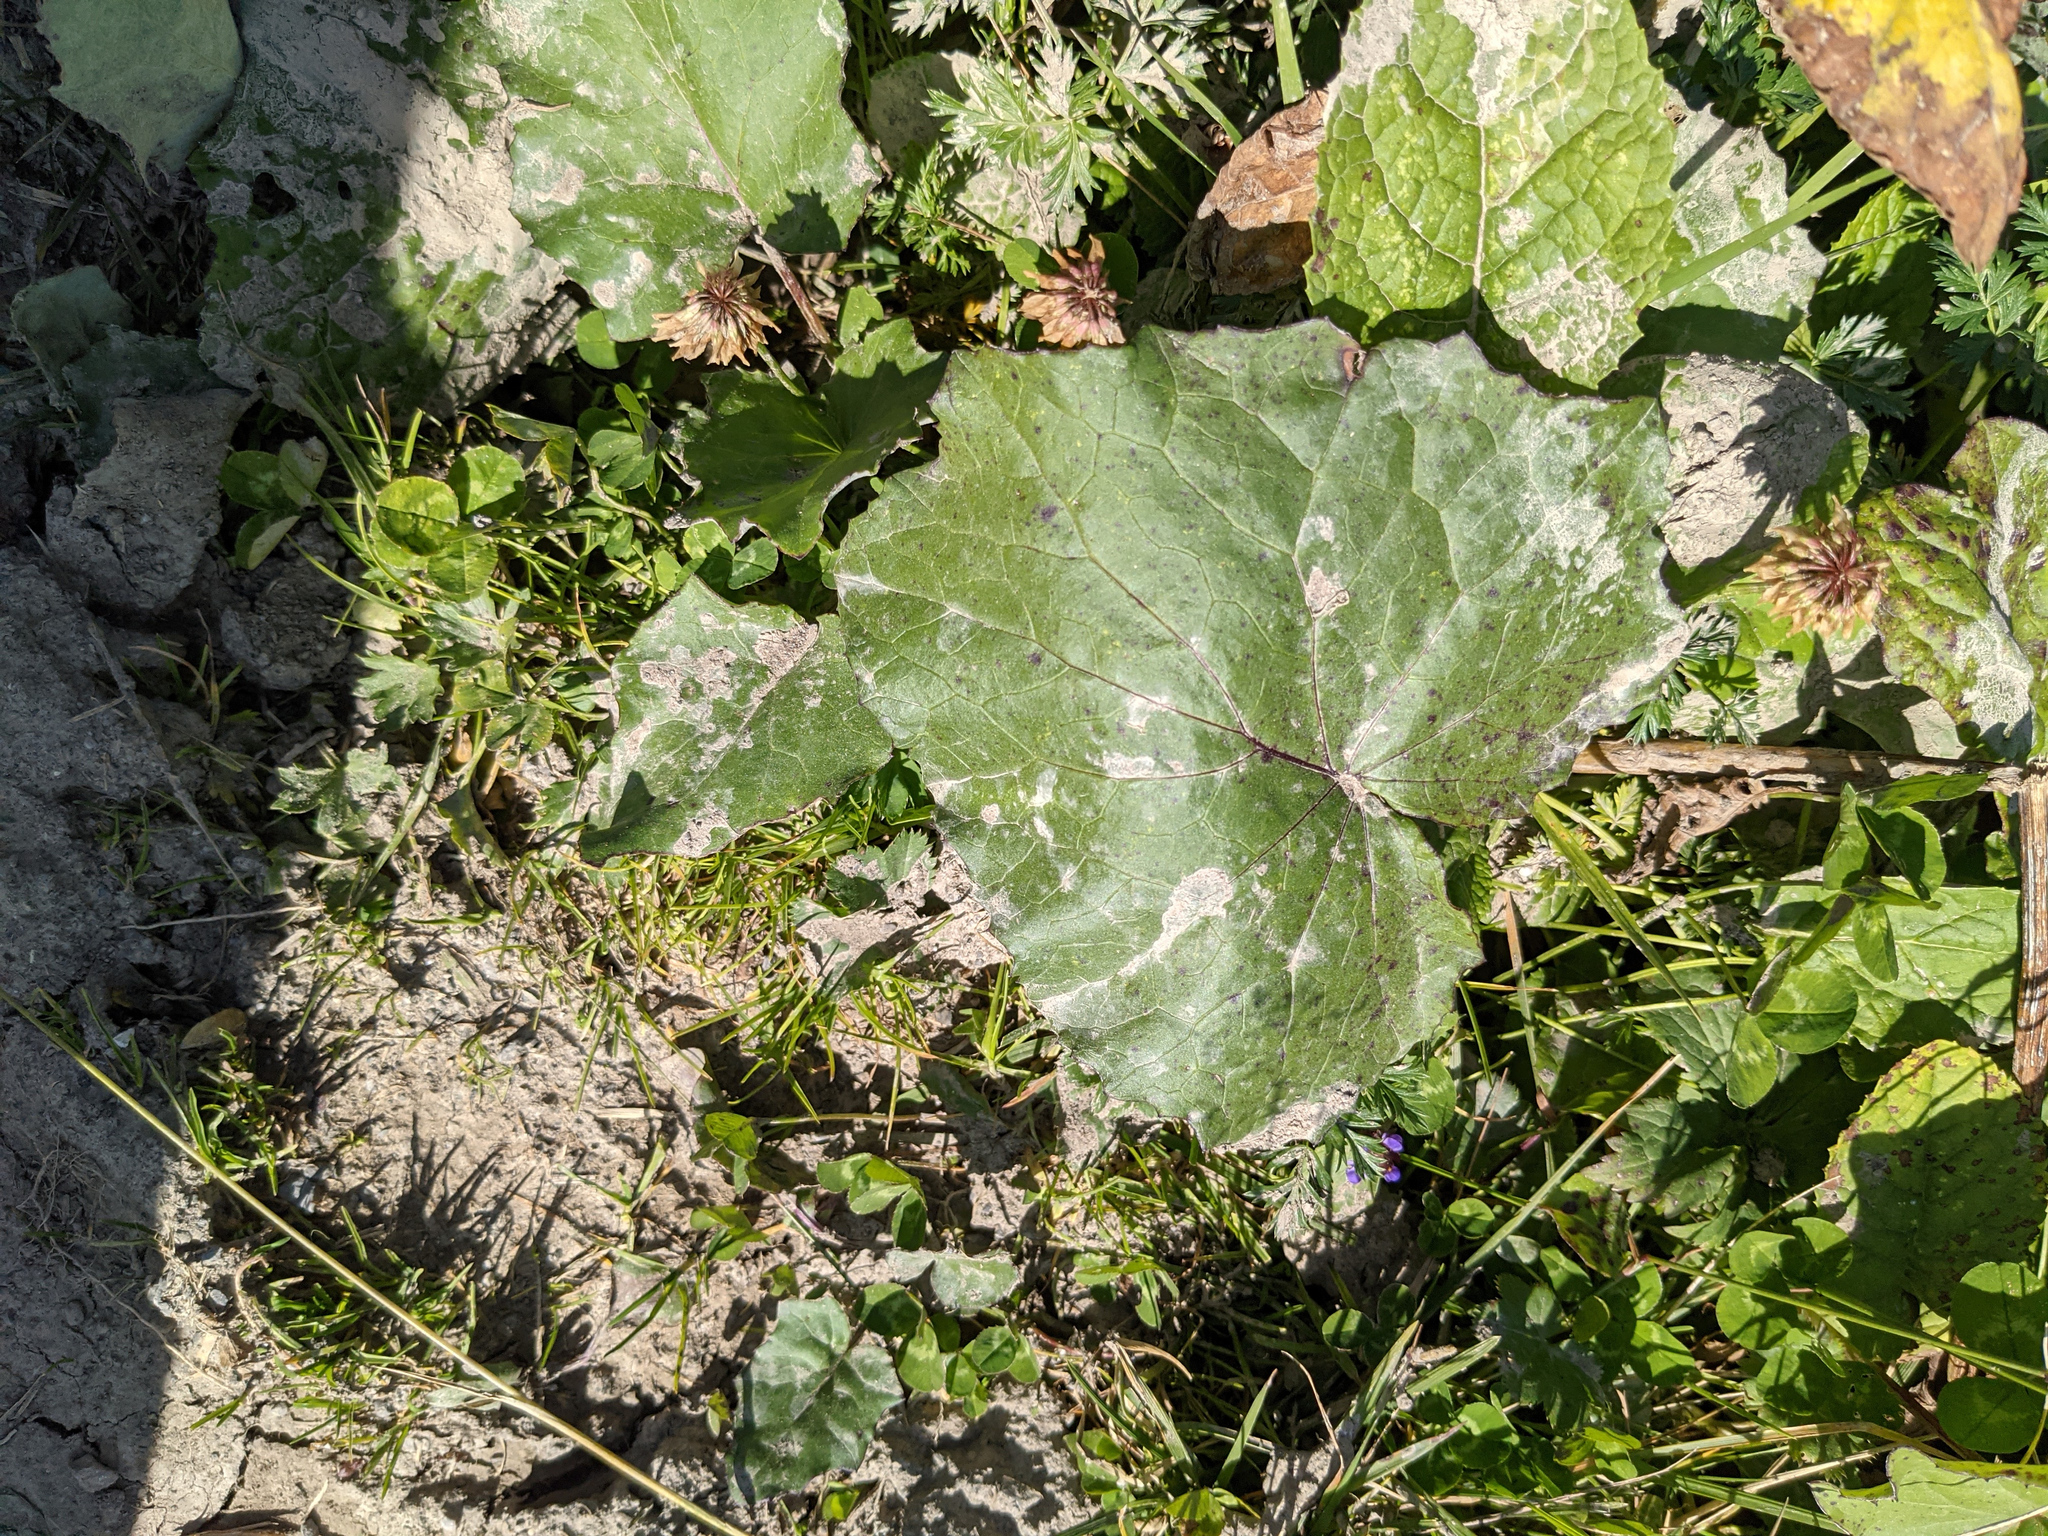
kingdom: Plantae
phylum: Tracheophyta
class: Magnoliopsida
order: Asterales
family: Asteraceae
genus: Tussilago
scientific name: Tussilago farfara
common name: Coltsfoot
